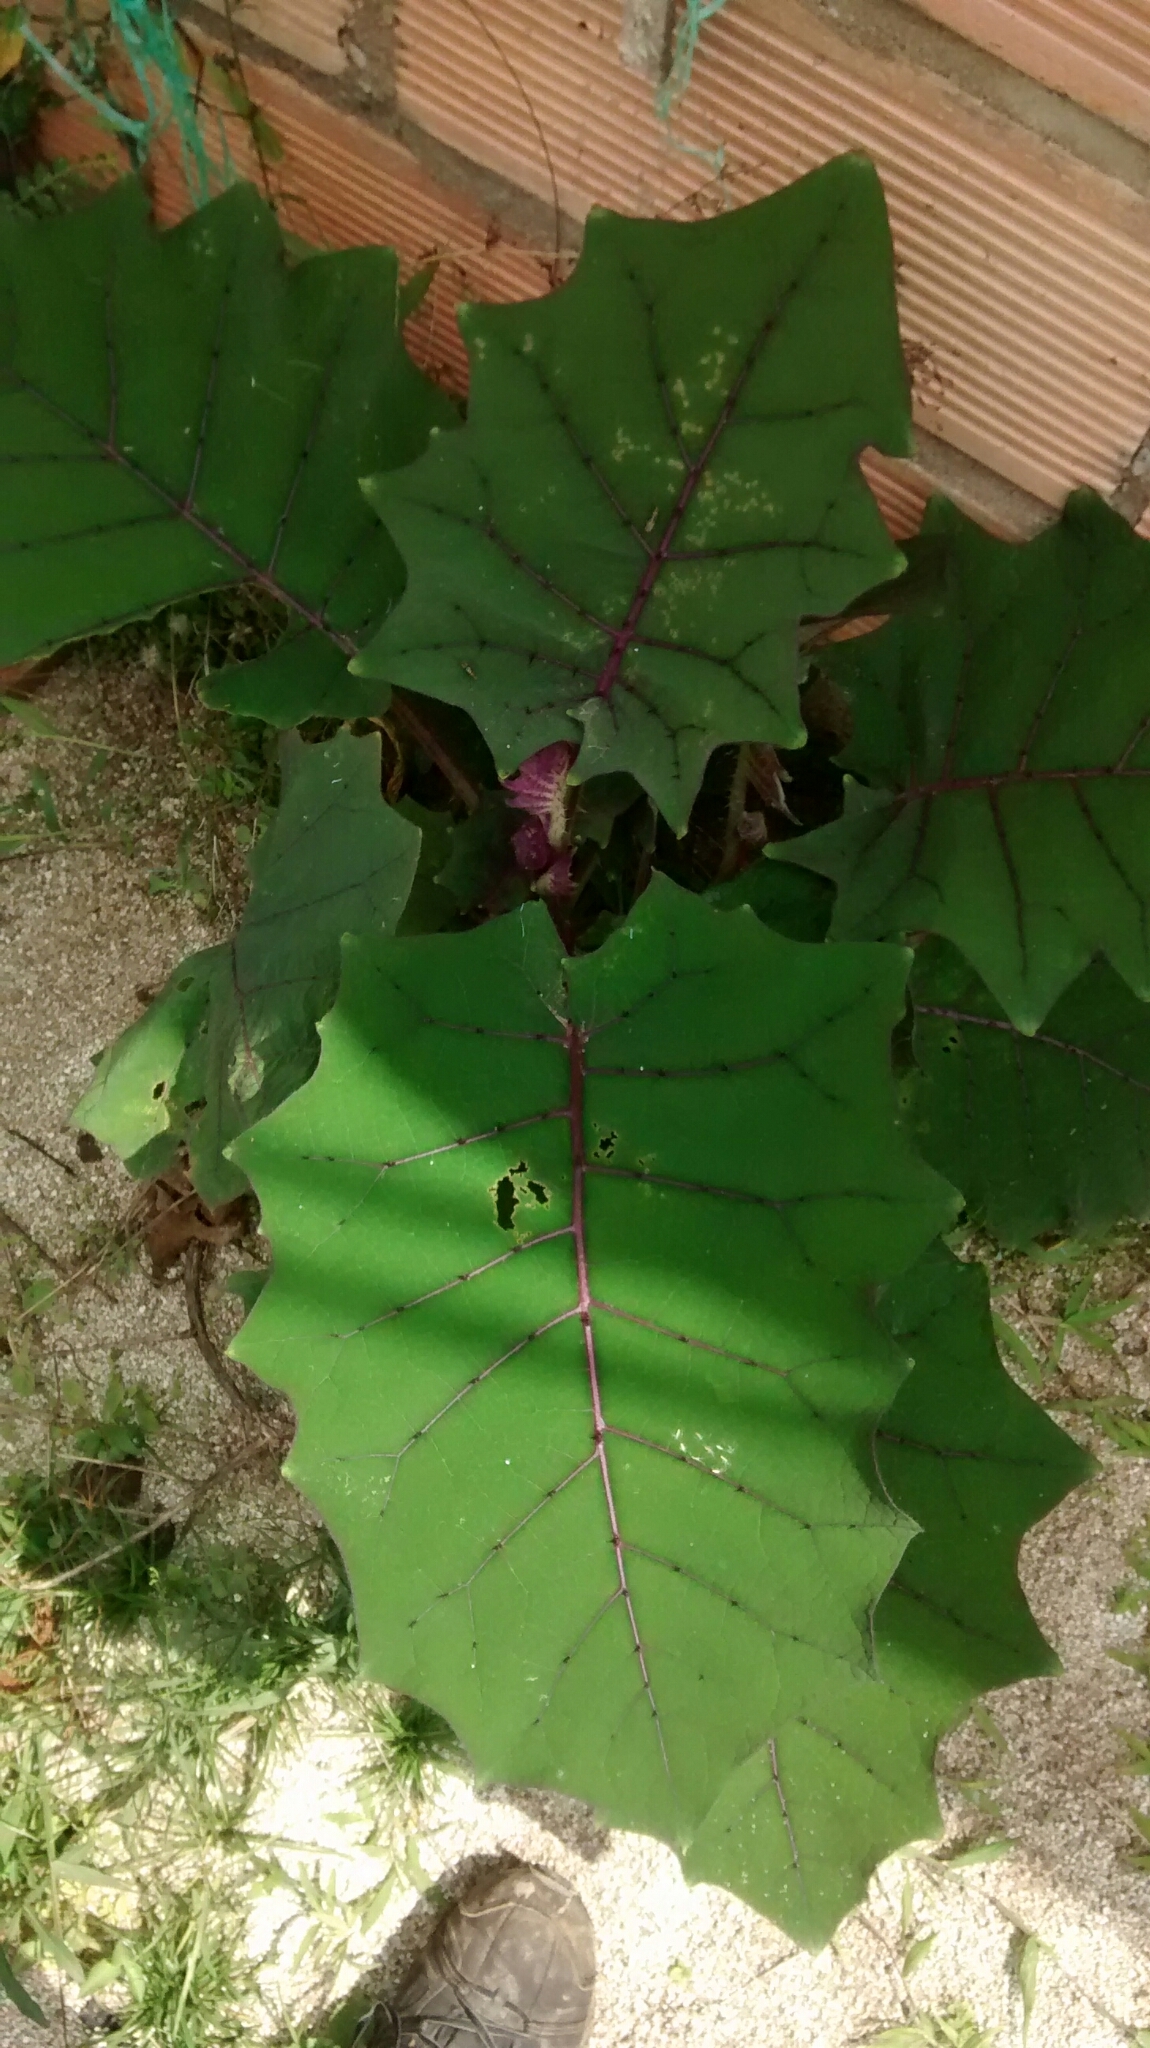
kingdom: Plantae
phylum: Tracheophyta
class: Magnoliopsida
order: Solanales
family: Solanaceae
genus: Solanum
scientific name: Solanum quitoense
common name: Quito-orange
